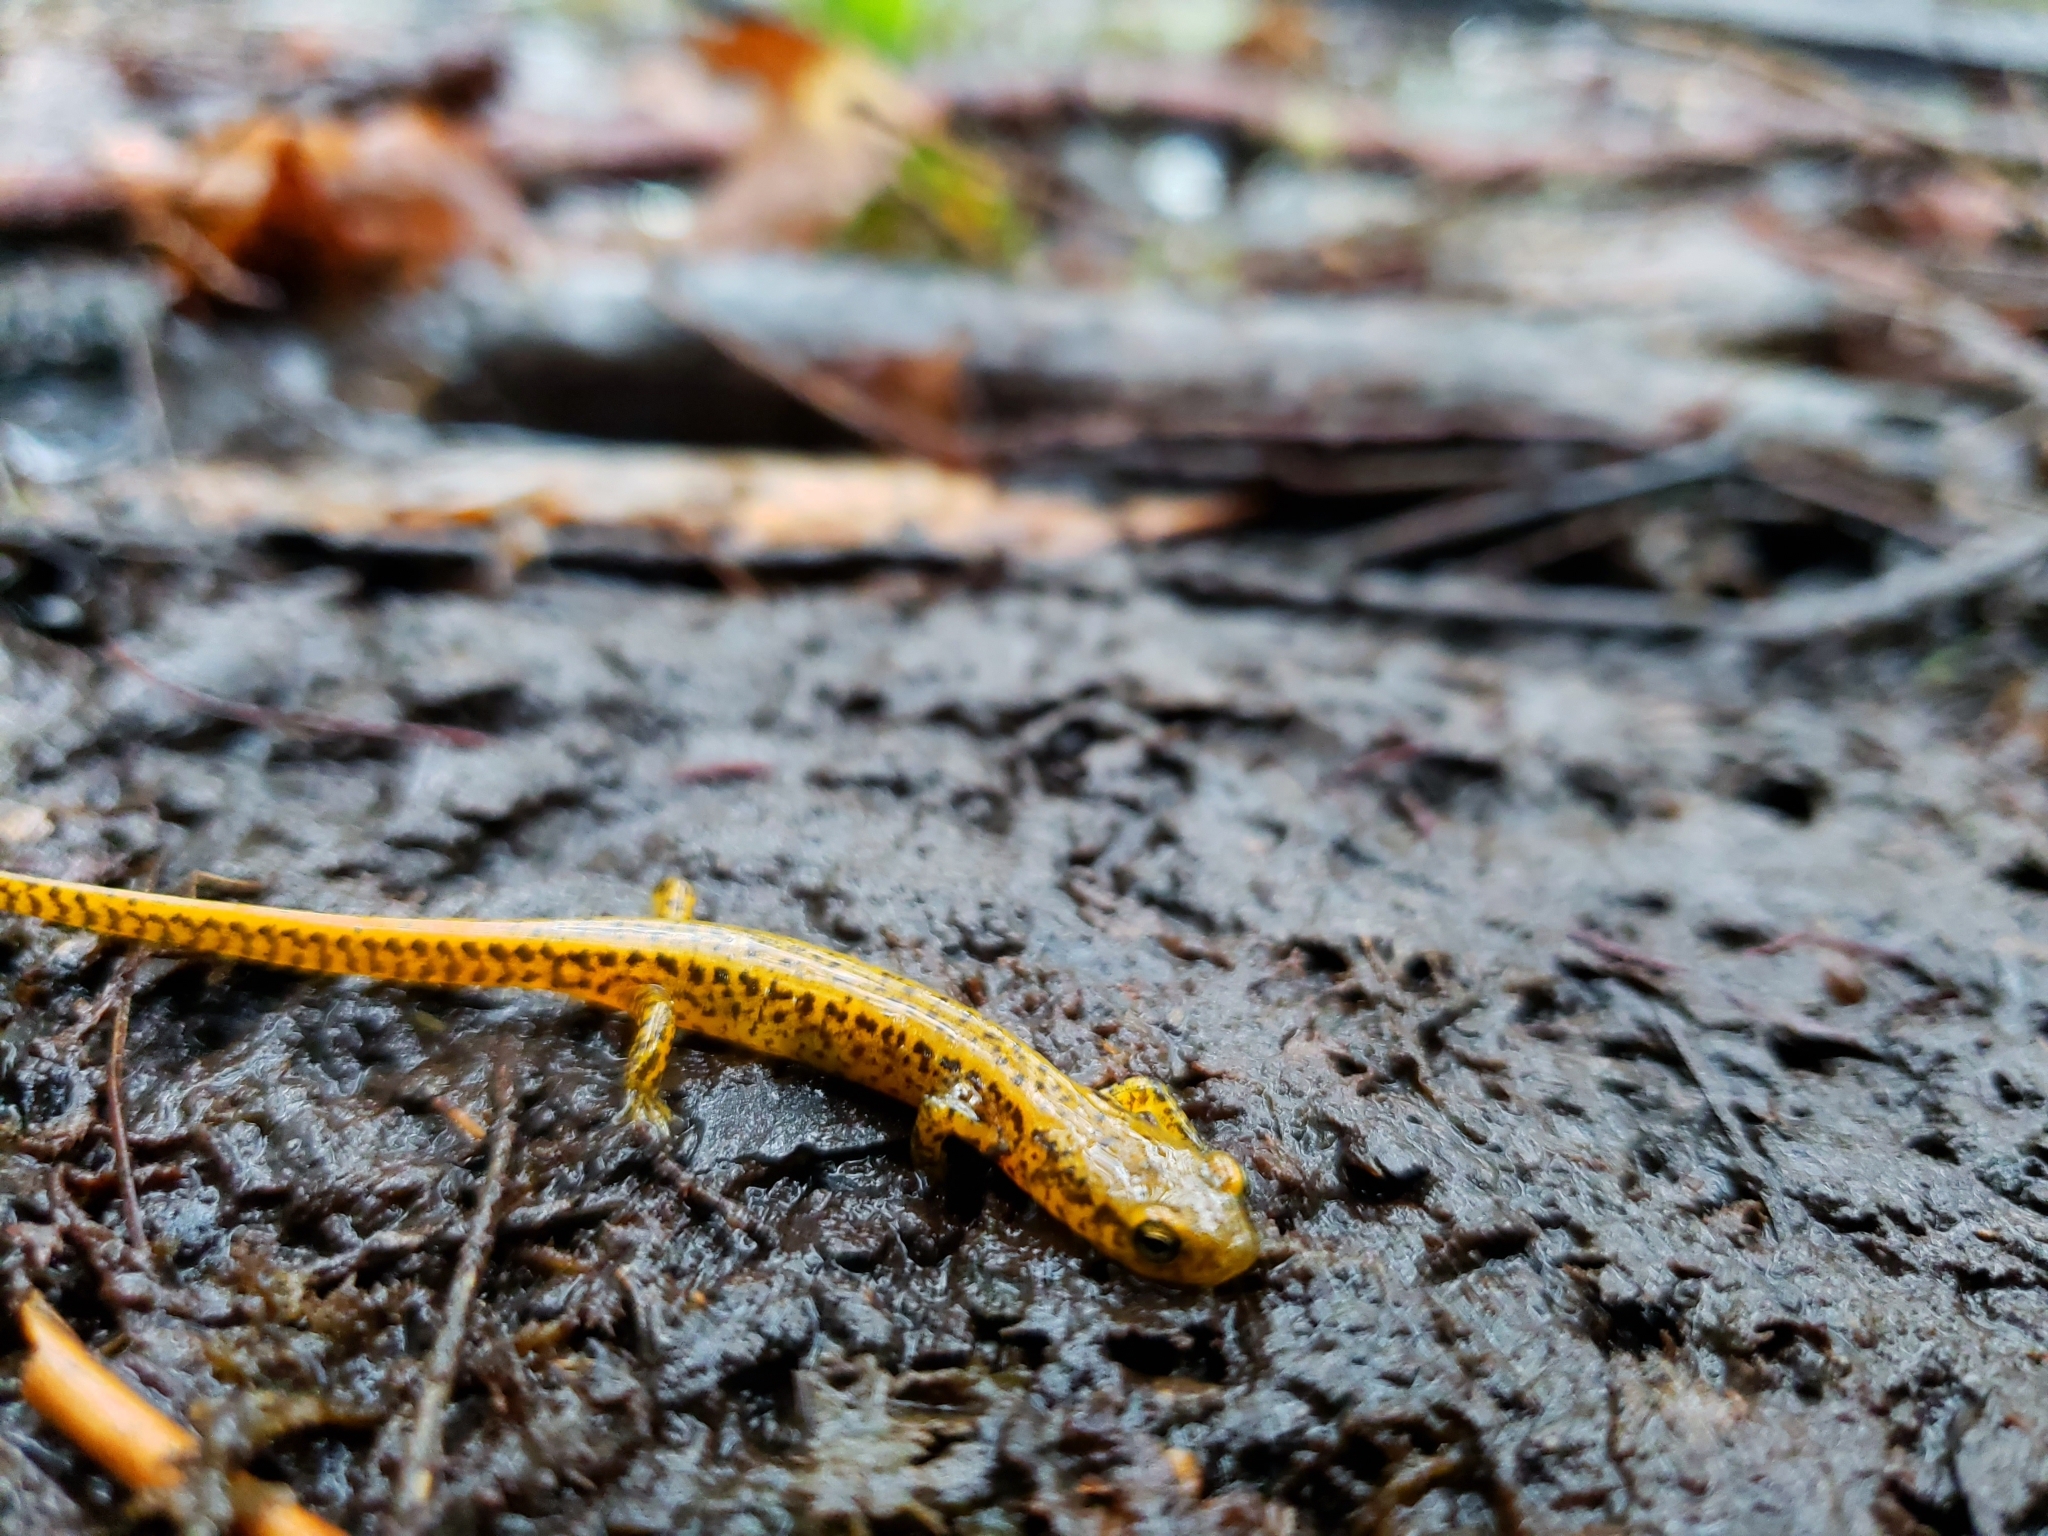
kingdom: Animalia
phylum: Chordata
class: Amphibia
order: Caudata
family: Plethodontidae
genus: Eurycea
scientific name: Eurycea longicauda
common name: Long-tailed salamander
